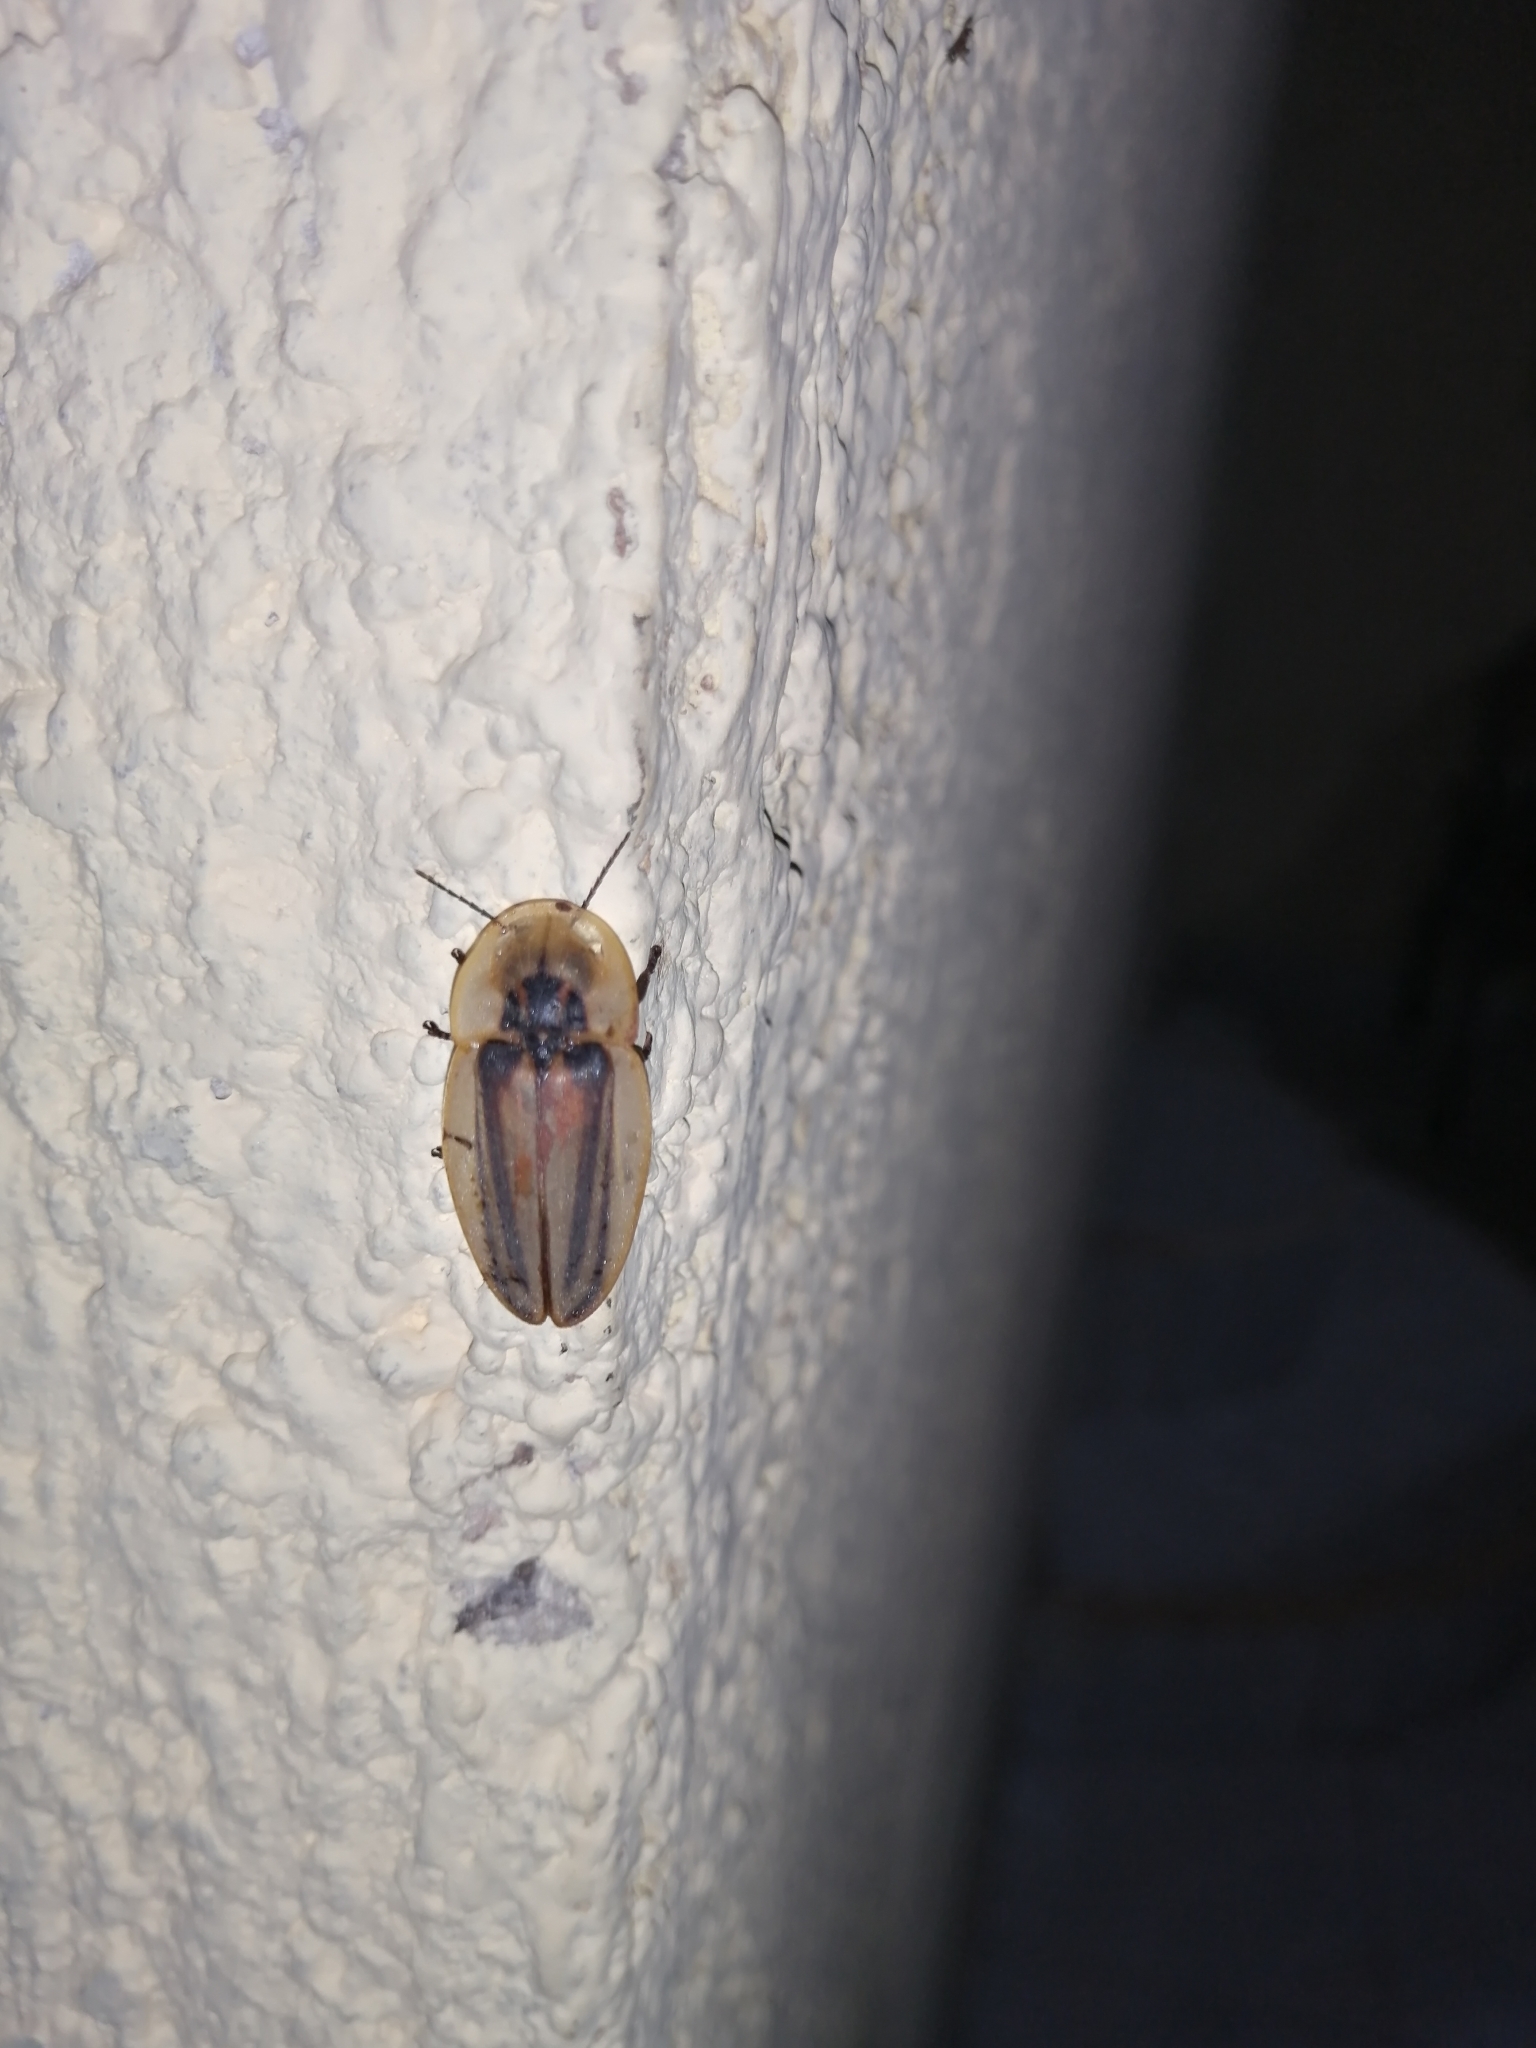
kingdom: Animalia
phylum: Arthropoda
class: Insecta
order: Coleoptera
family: Lampyridae
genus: Cratomorphus
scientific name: Cratomorphus signativentris
